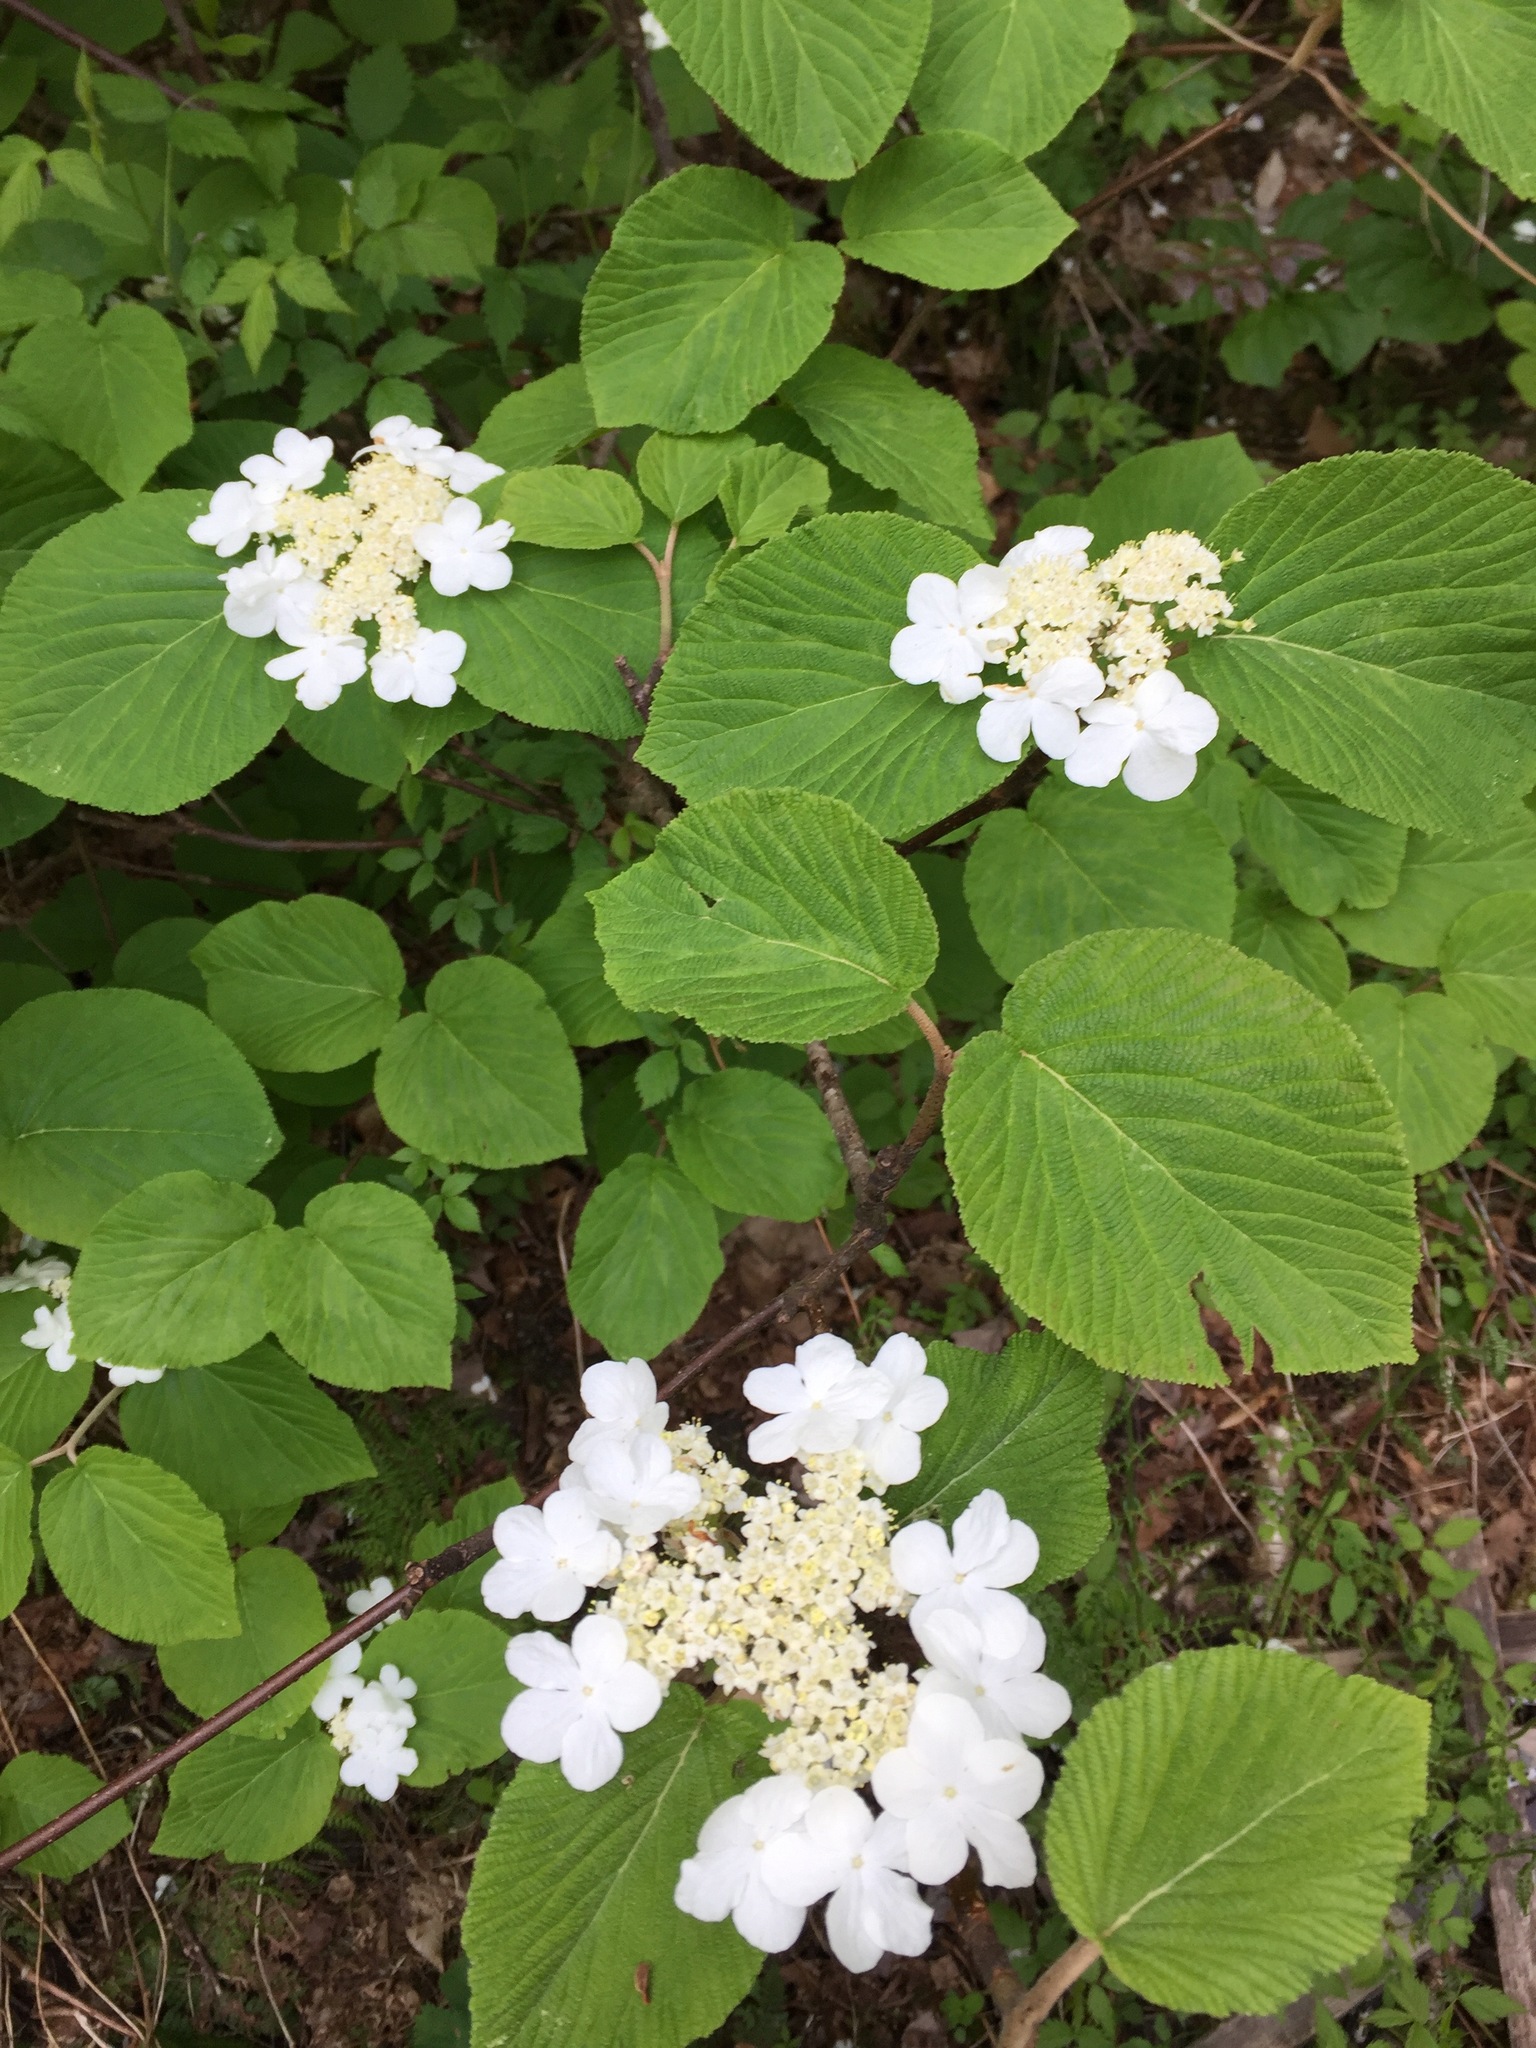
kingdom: Plantae
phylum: Tracheophyta
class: Magnoliopsida
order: Dipsacales
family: Viburnaceae
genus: Viburnum
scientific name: Viburnum lantanoides
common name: Hobblebush
